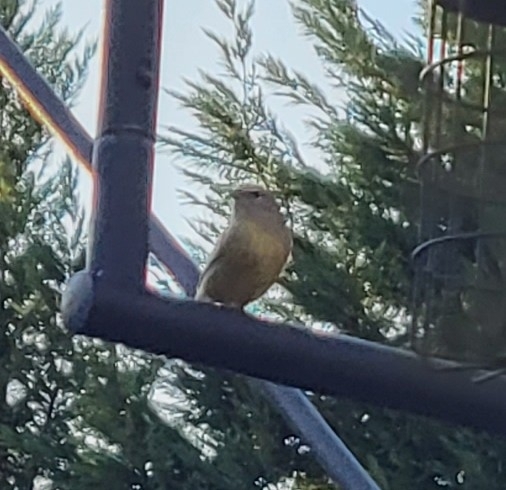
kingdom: Animalia
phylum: Chordata
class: Aves
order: Passeriformes
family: Parulidae
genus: Setophaga
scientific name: Setophaga pinus
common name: Pine warbler
